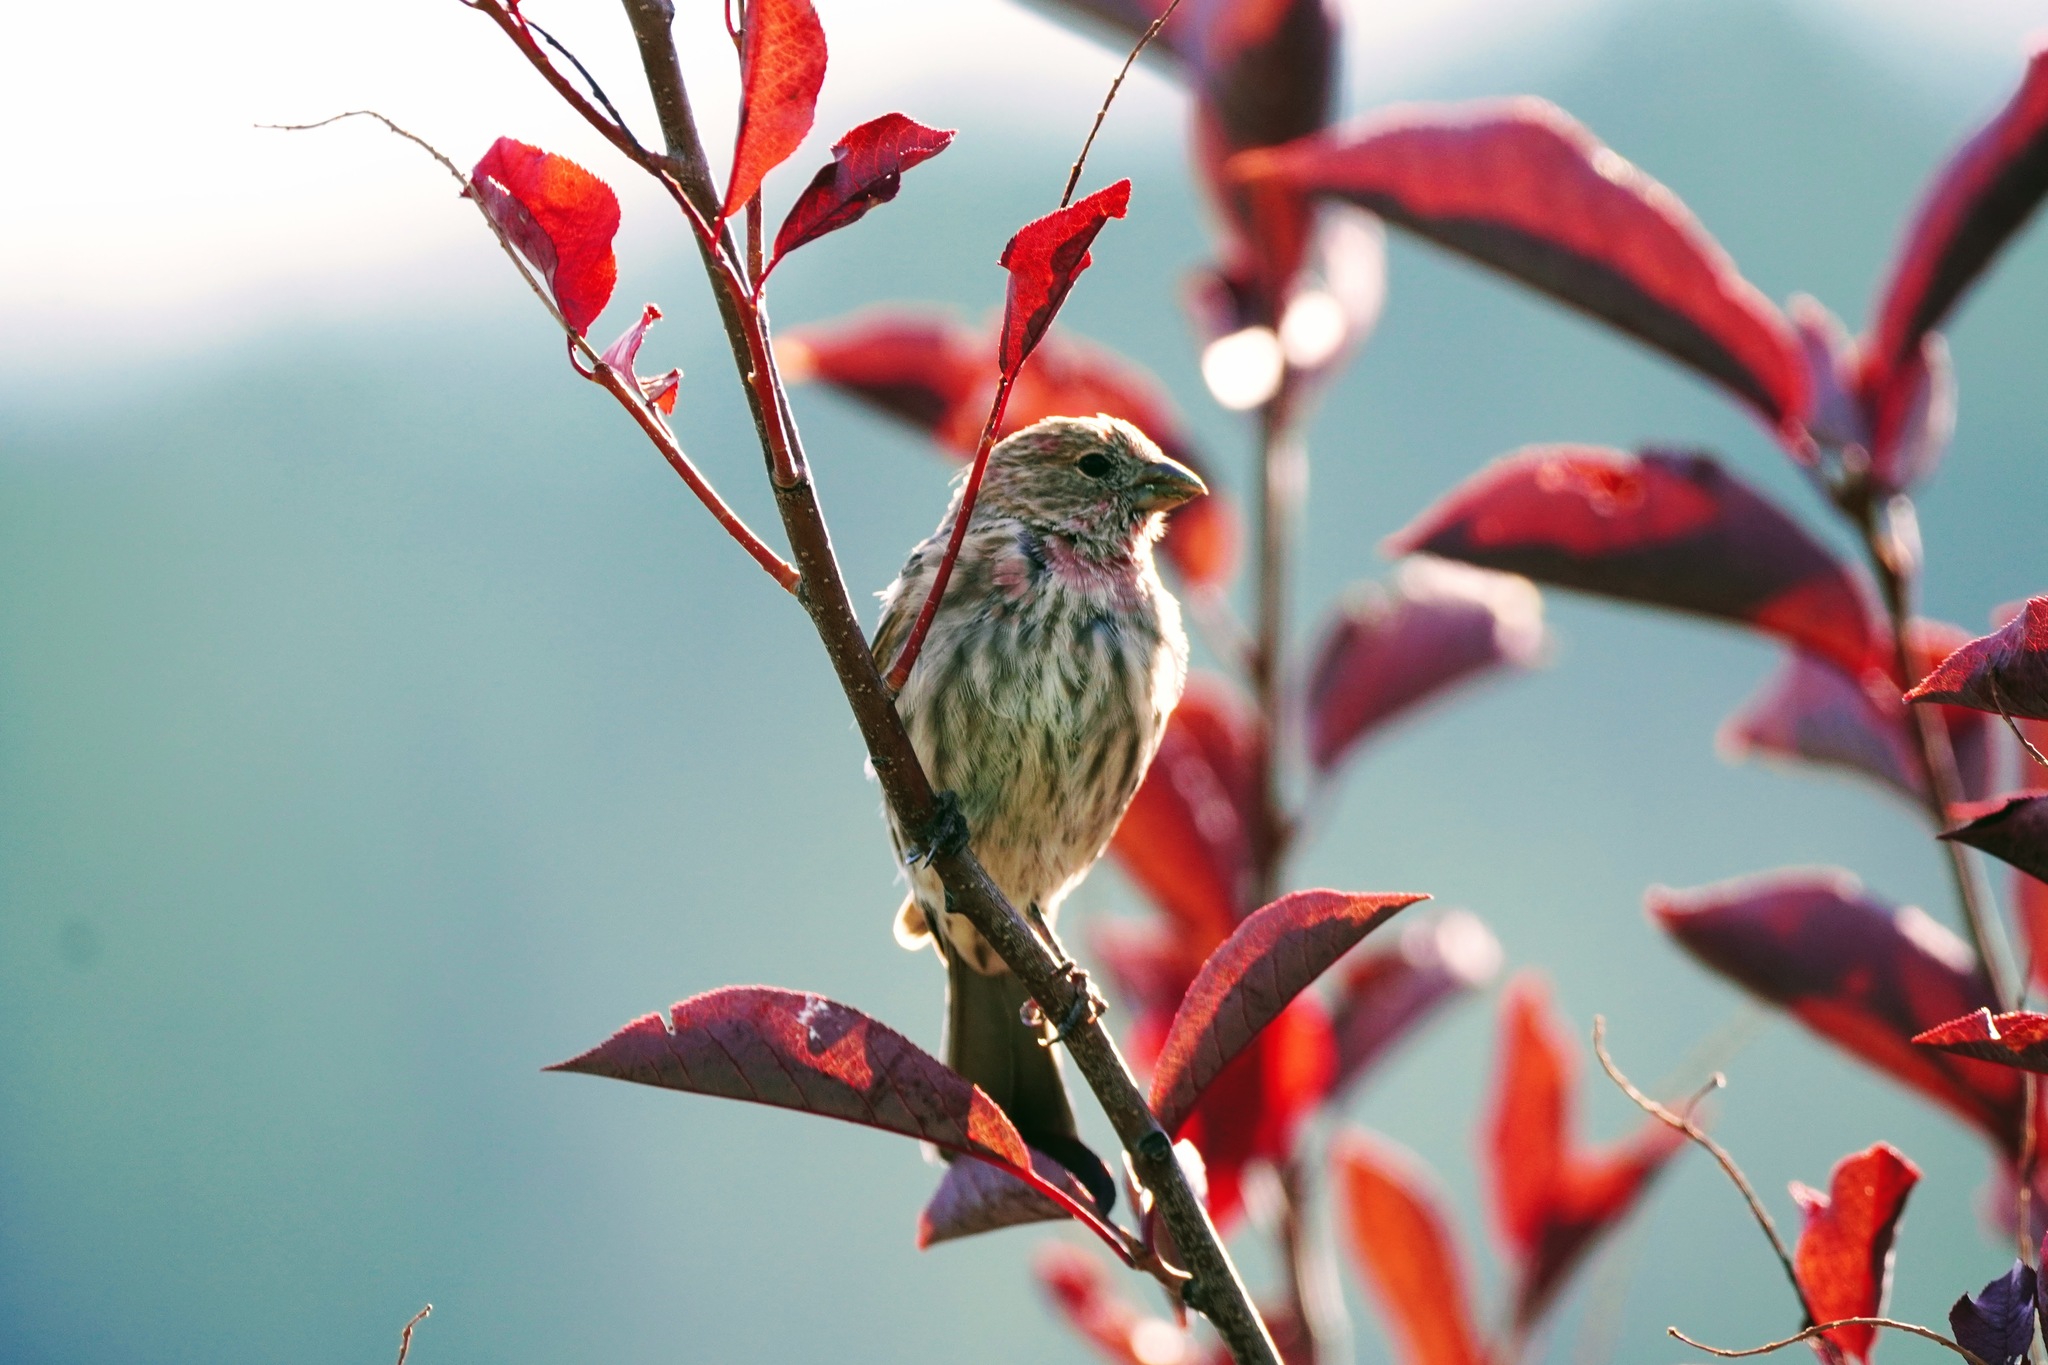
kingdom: Animalia
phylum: Chordata
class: Aves
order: Passeriformes
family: Fringillidae
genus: Haemorhous
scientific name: Haemorhous mexicanus
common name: House finch
